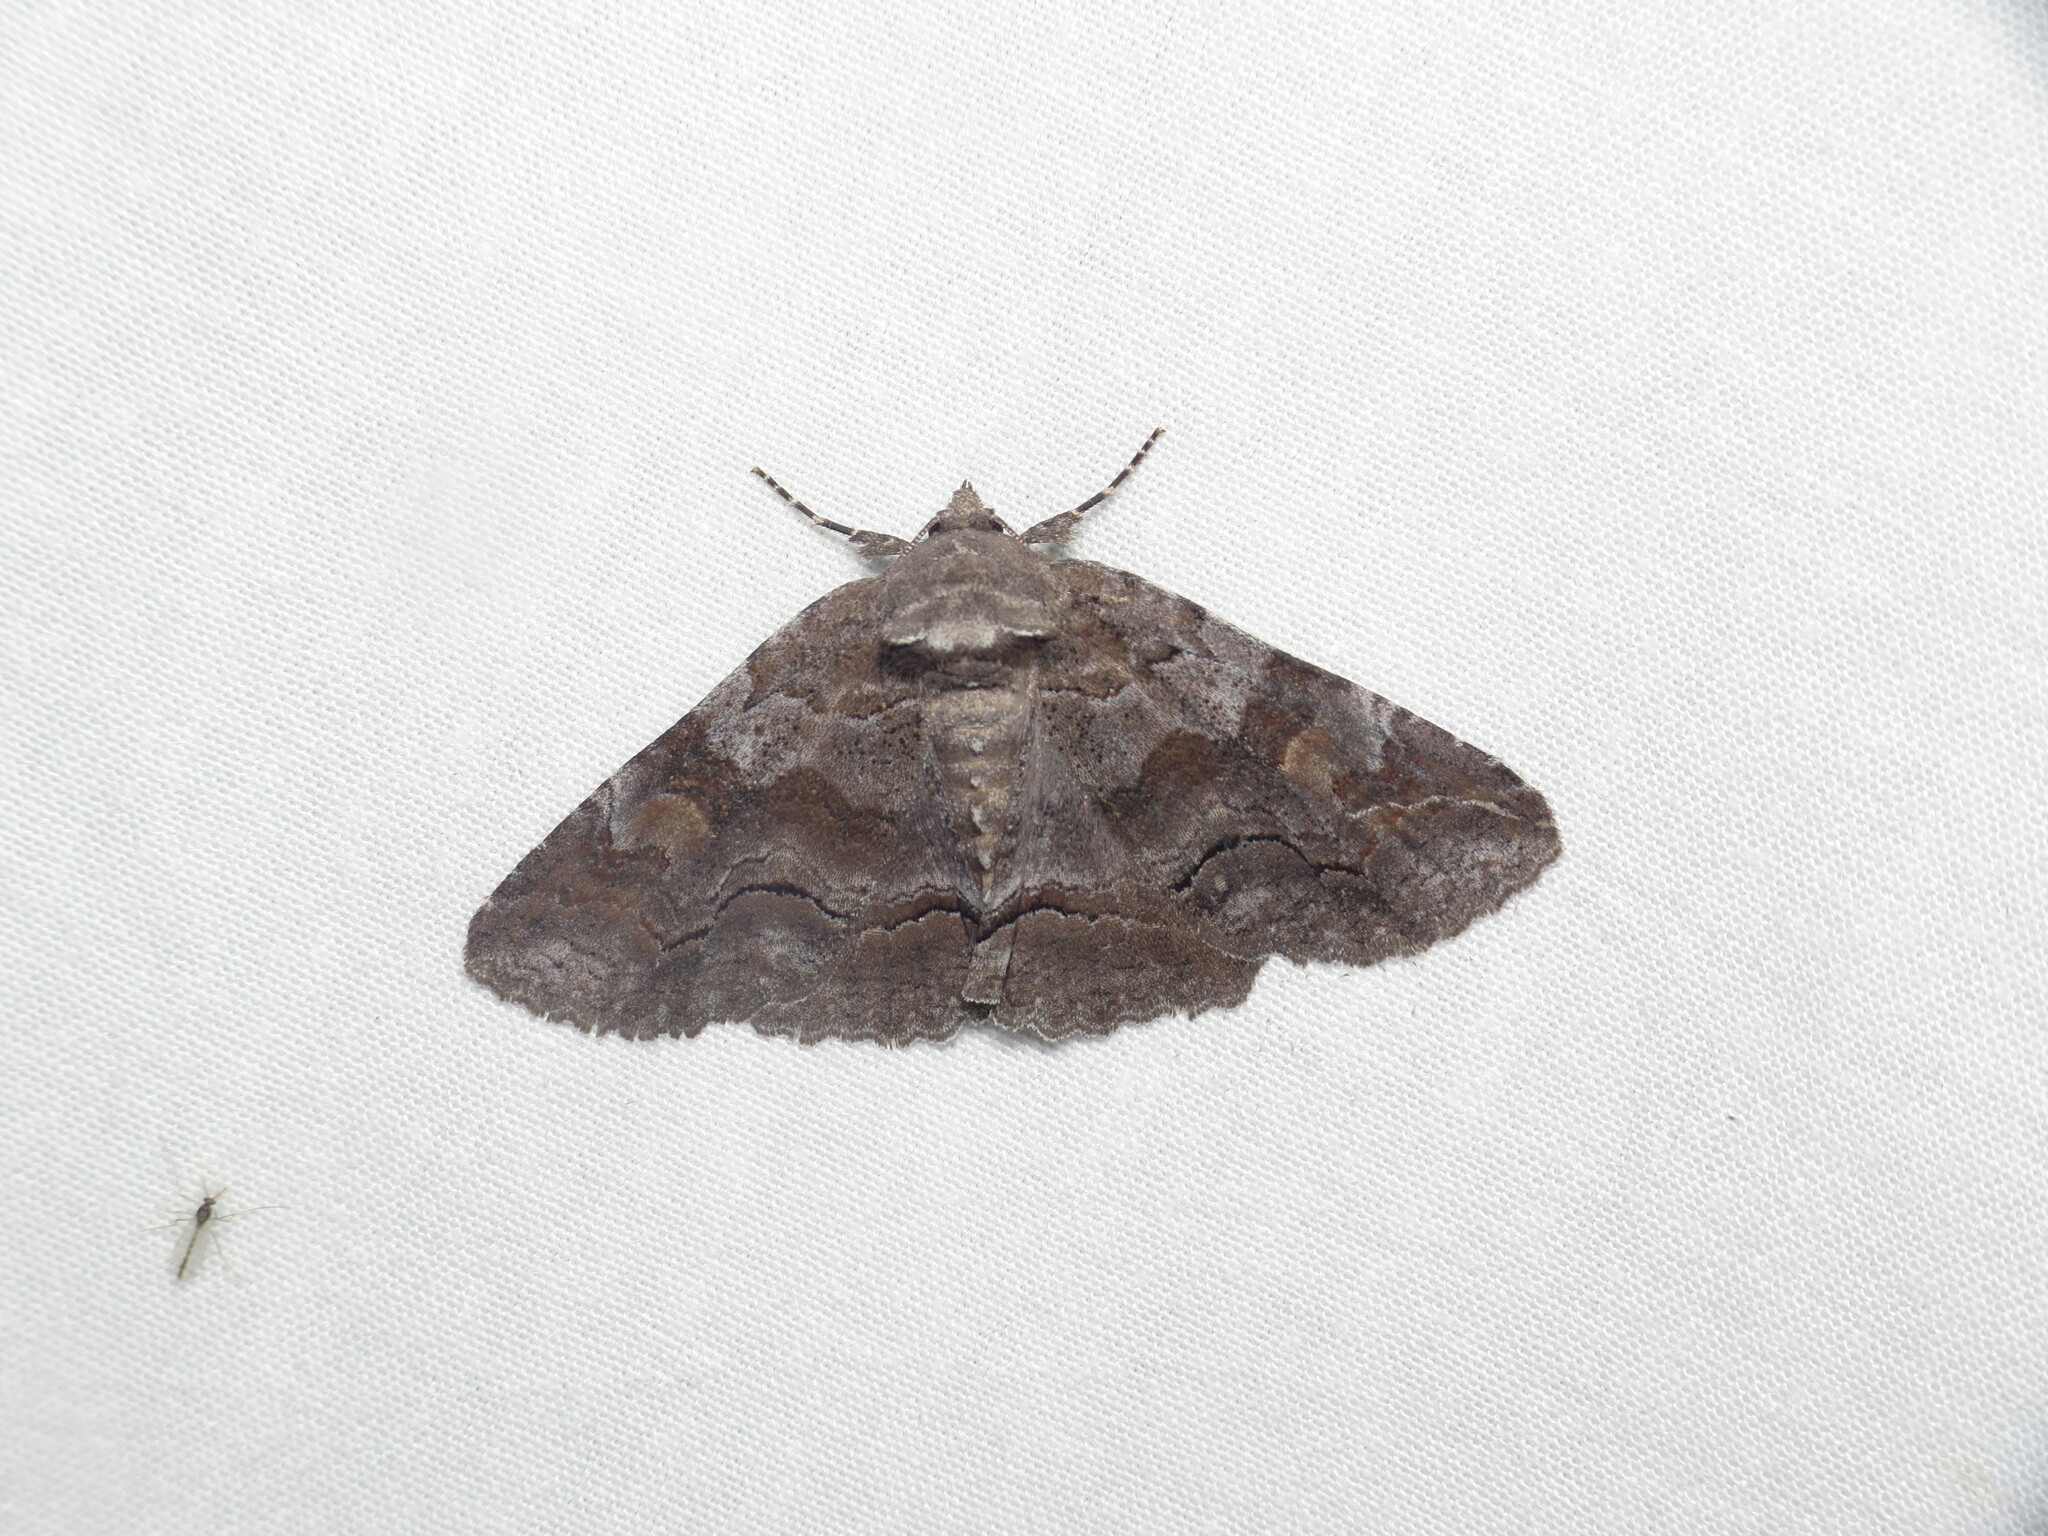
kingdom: Animalia
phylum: Arthropoda
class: Insecta
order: Lepidoptera
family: Erebidae
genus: Zale
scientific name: Zale submediana
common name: Gray spring zale
